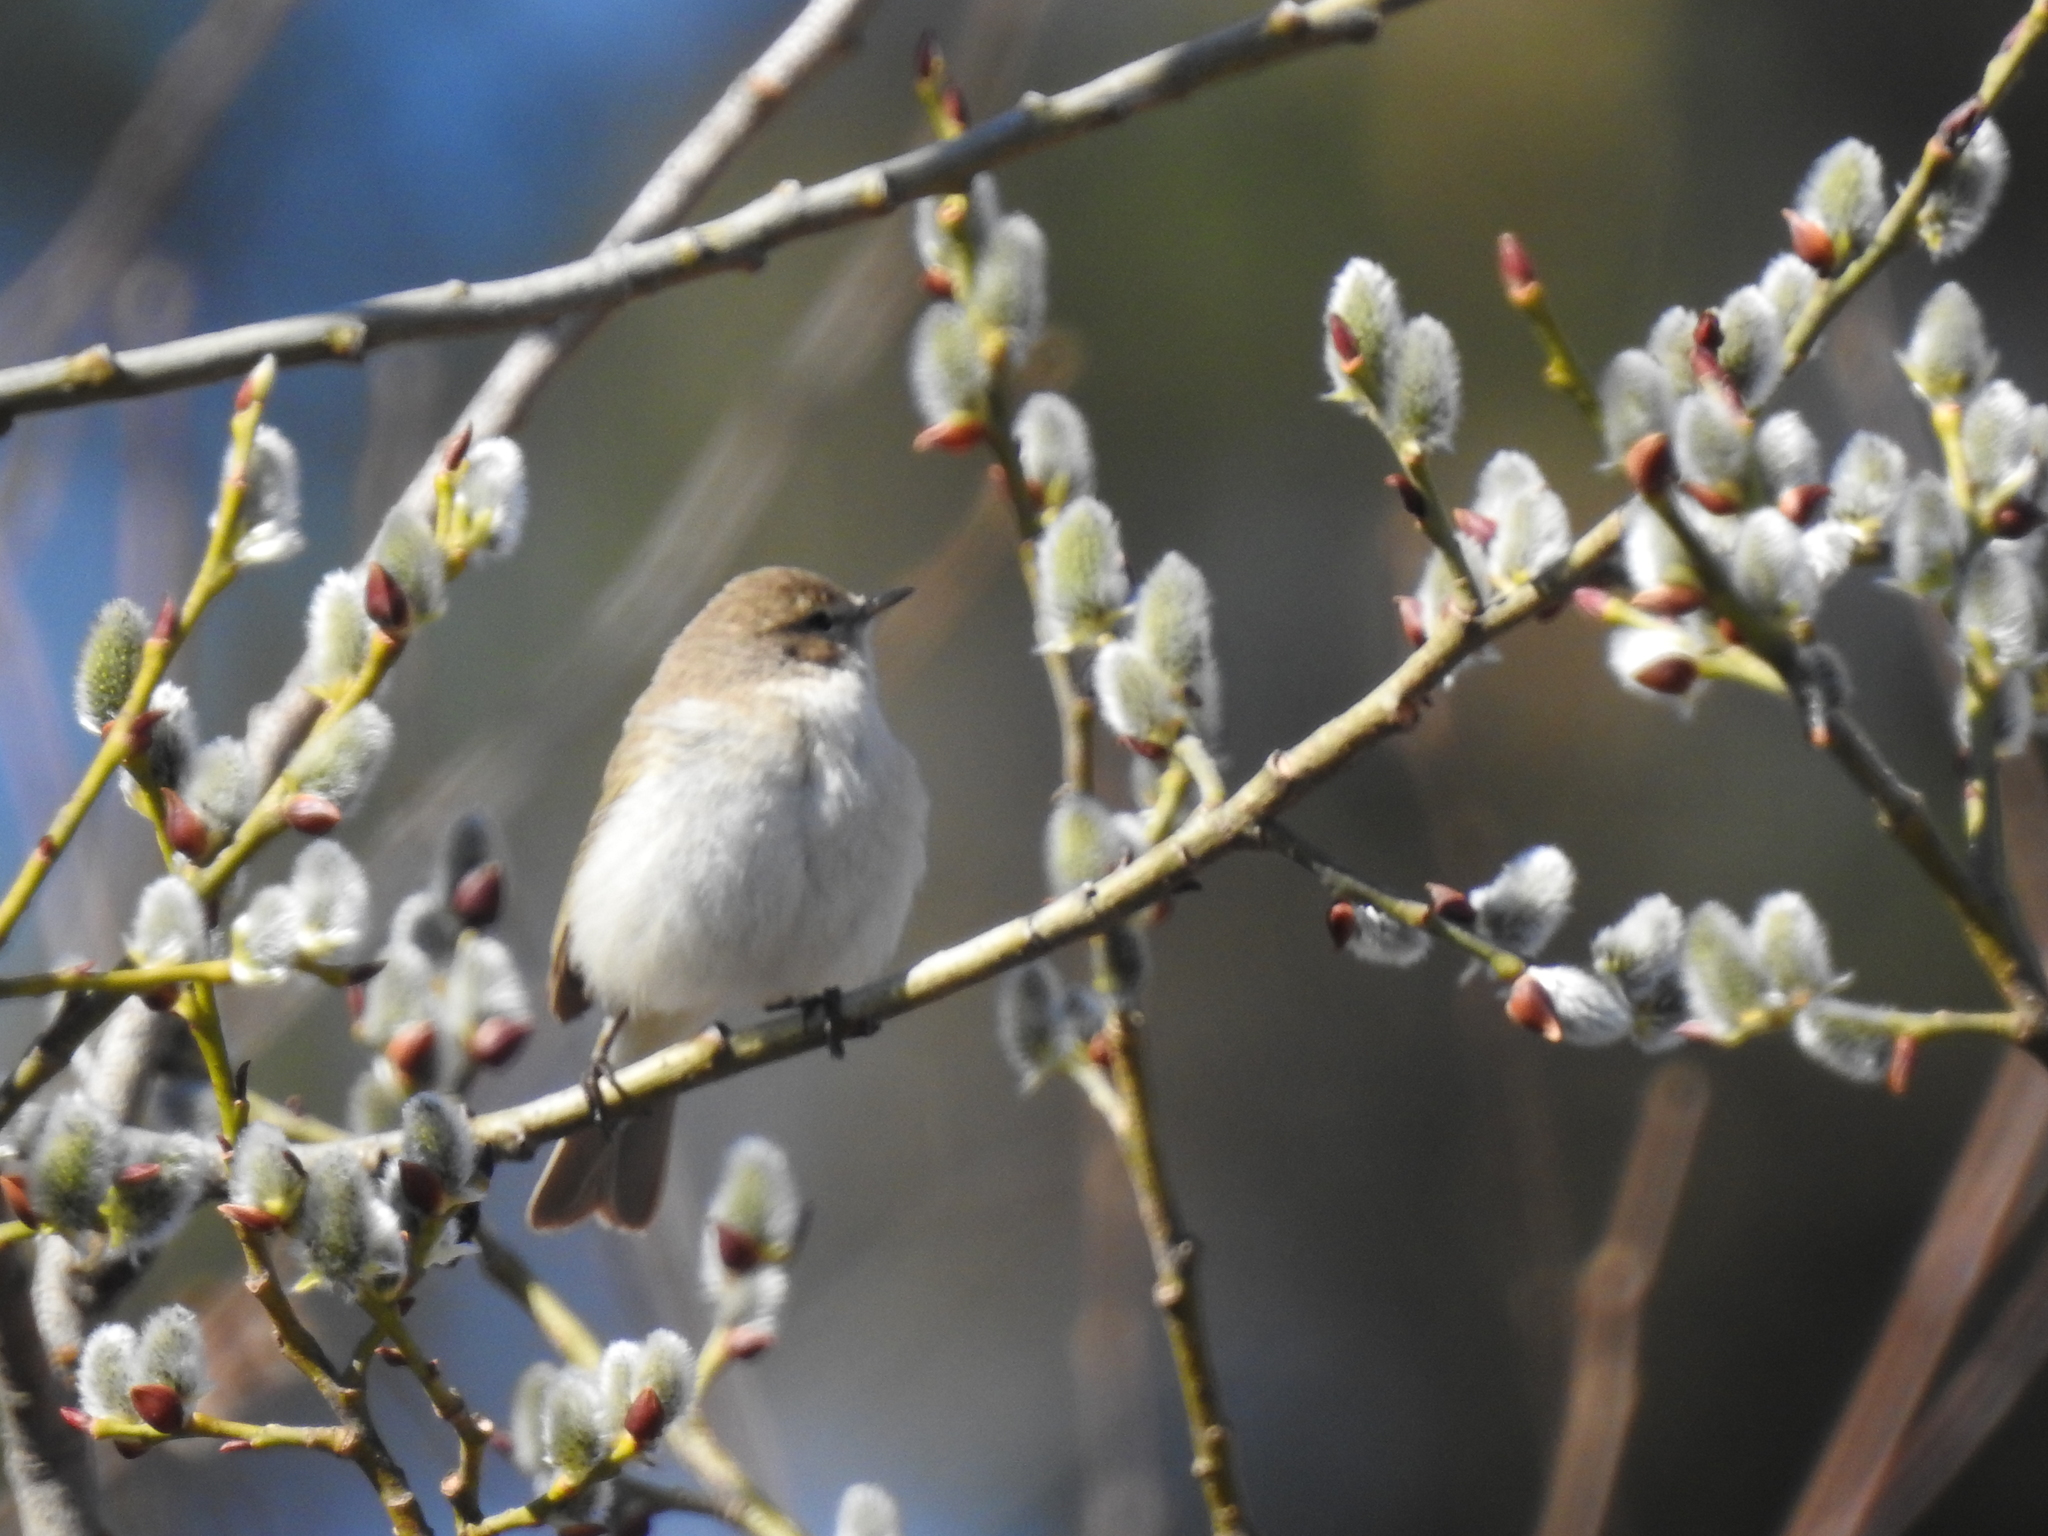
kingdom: Animalia
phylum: Chordata
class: Aves
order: Passeriformes
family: Phylloscopidae
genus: Phylloscopus
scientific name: Phylloscopus collybita
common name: Common chiffchaff
